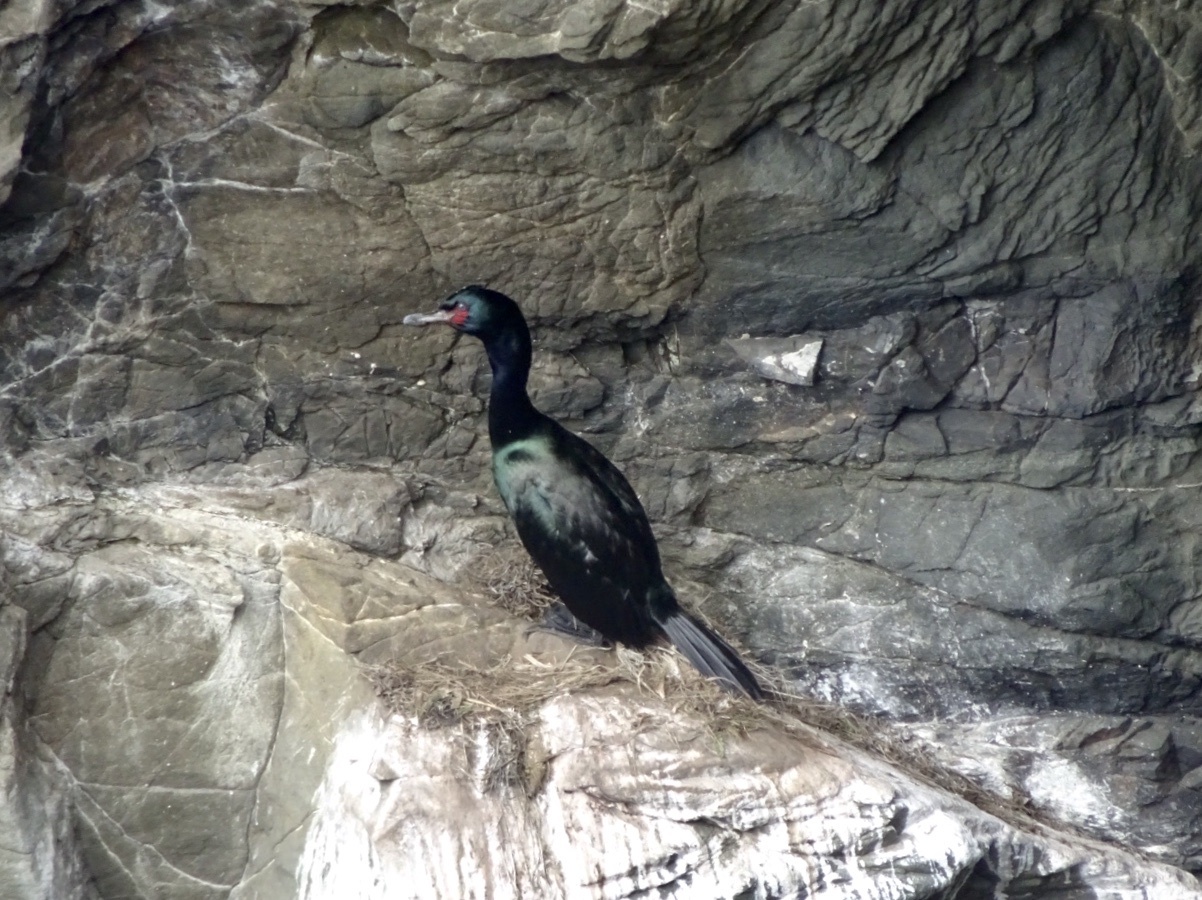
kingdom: Animalia
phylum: Chordata
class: Aves
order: Suliformes
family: Phalacrocoracidae
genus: Phalacrocorax
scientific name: Phalacrocorax pelagicus
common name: Pelagic cormorant
